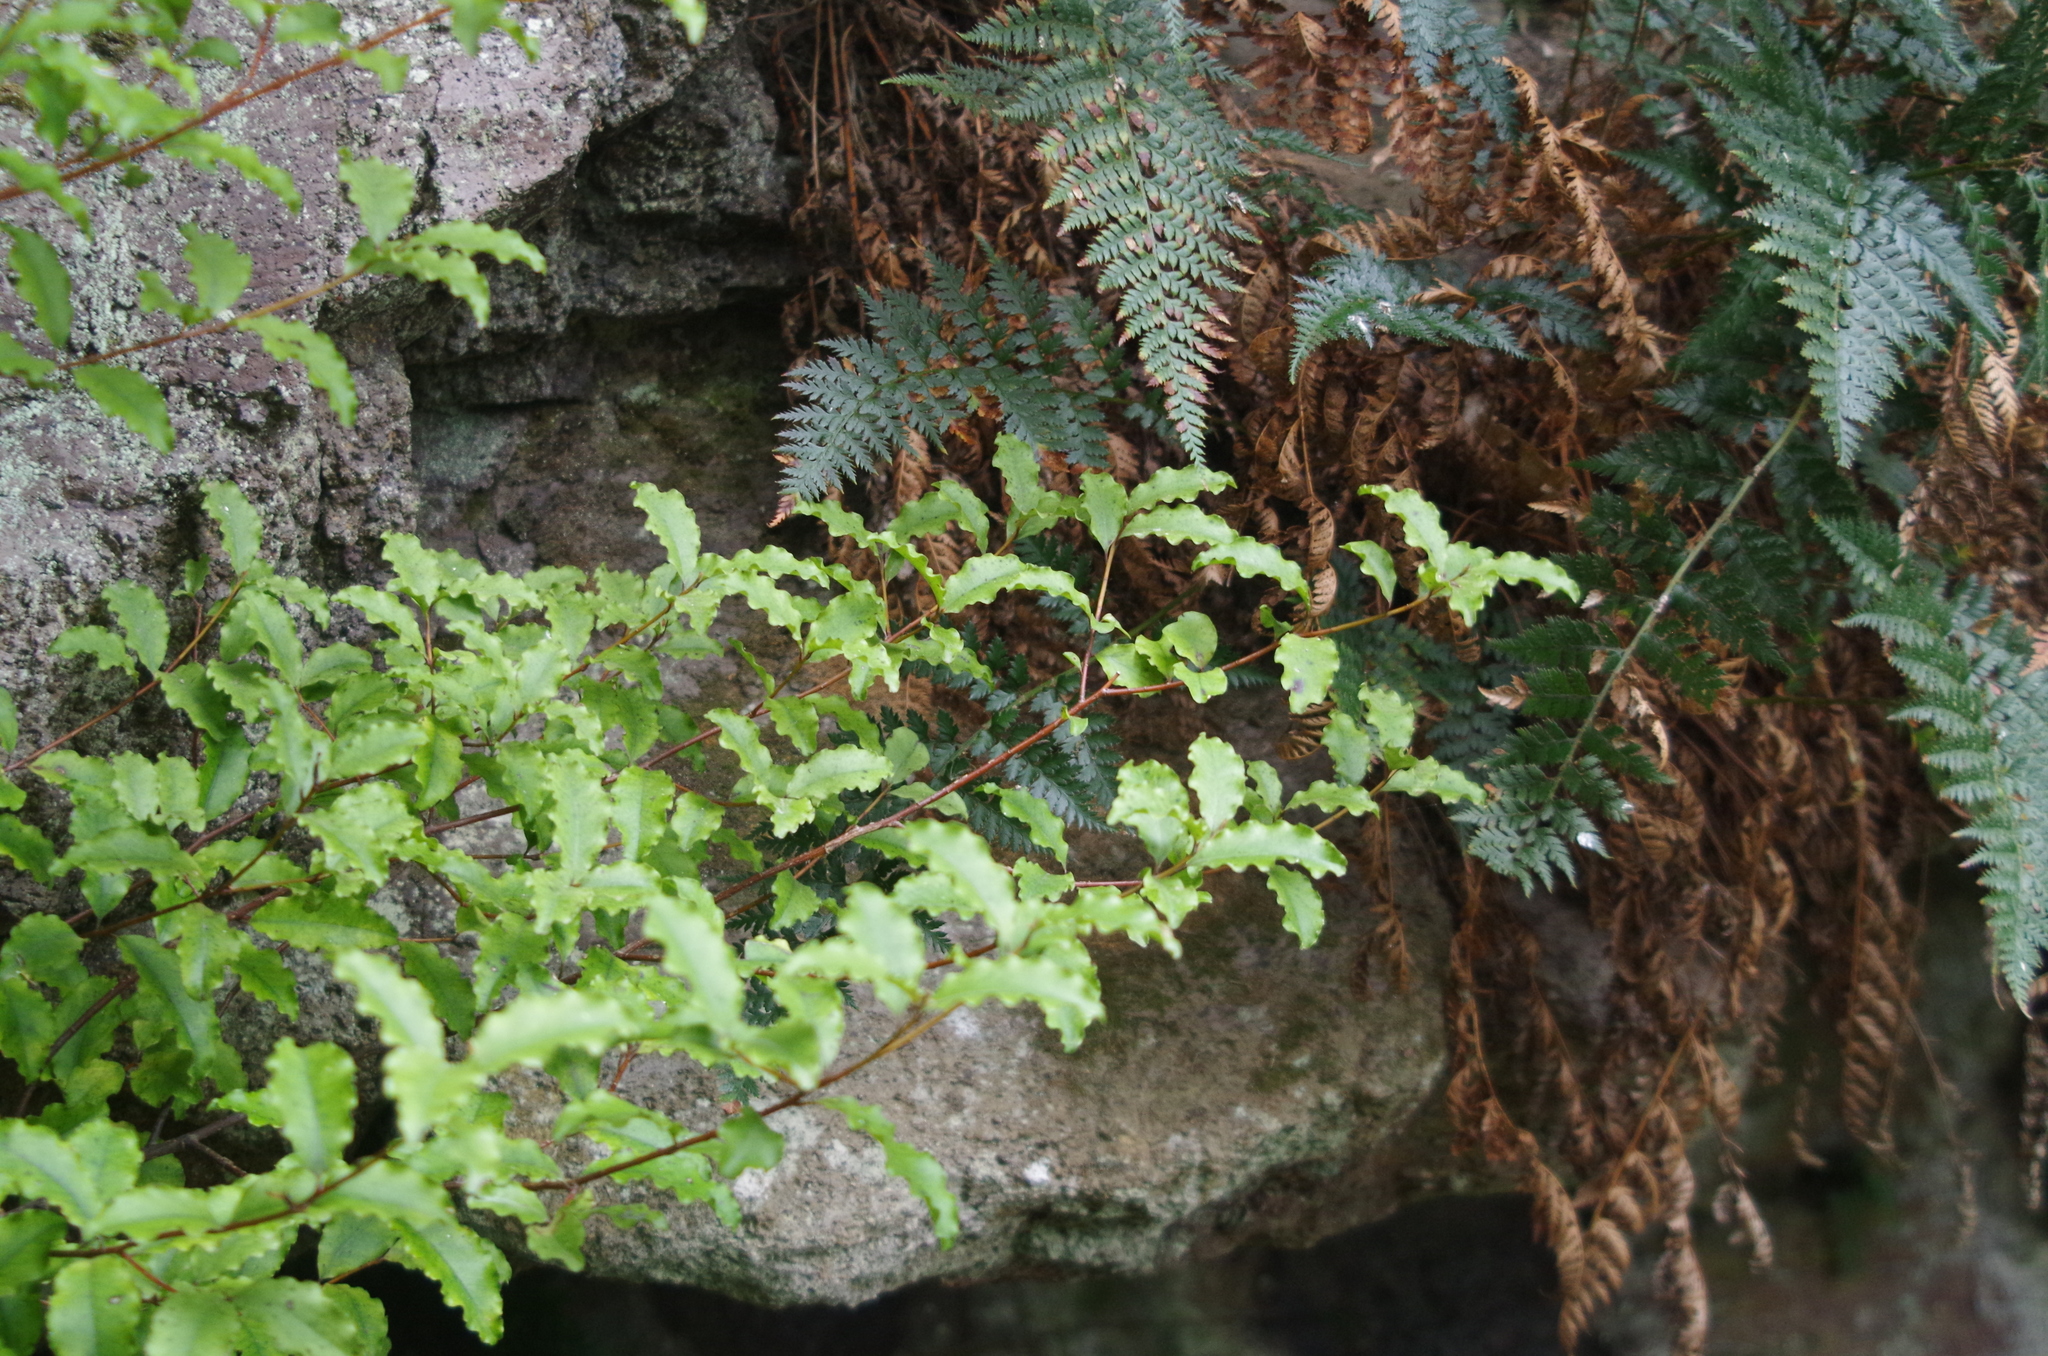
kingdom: Plantae
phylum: Tracheophyta
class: Magnoliopsida
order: Ericales
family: Primulaceae
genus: Myrsine
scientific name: Myrsine australis
